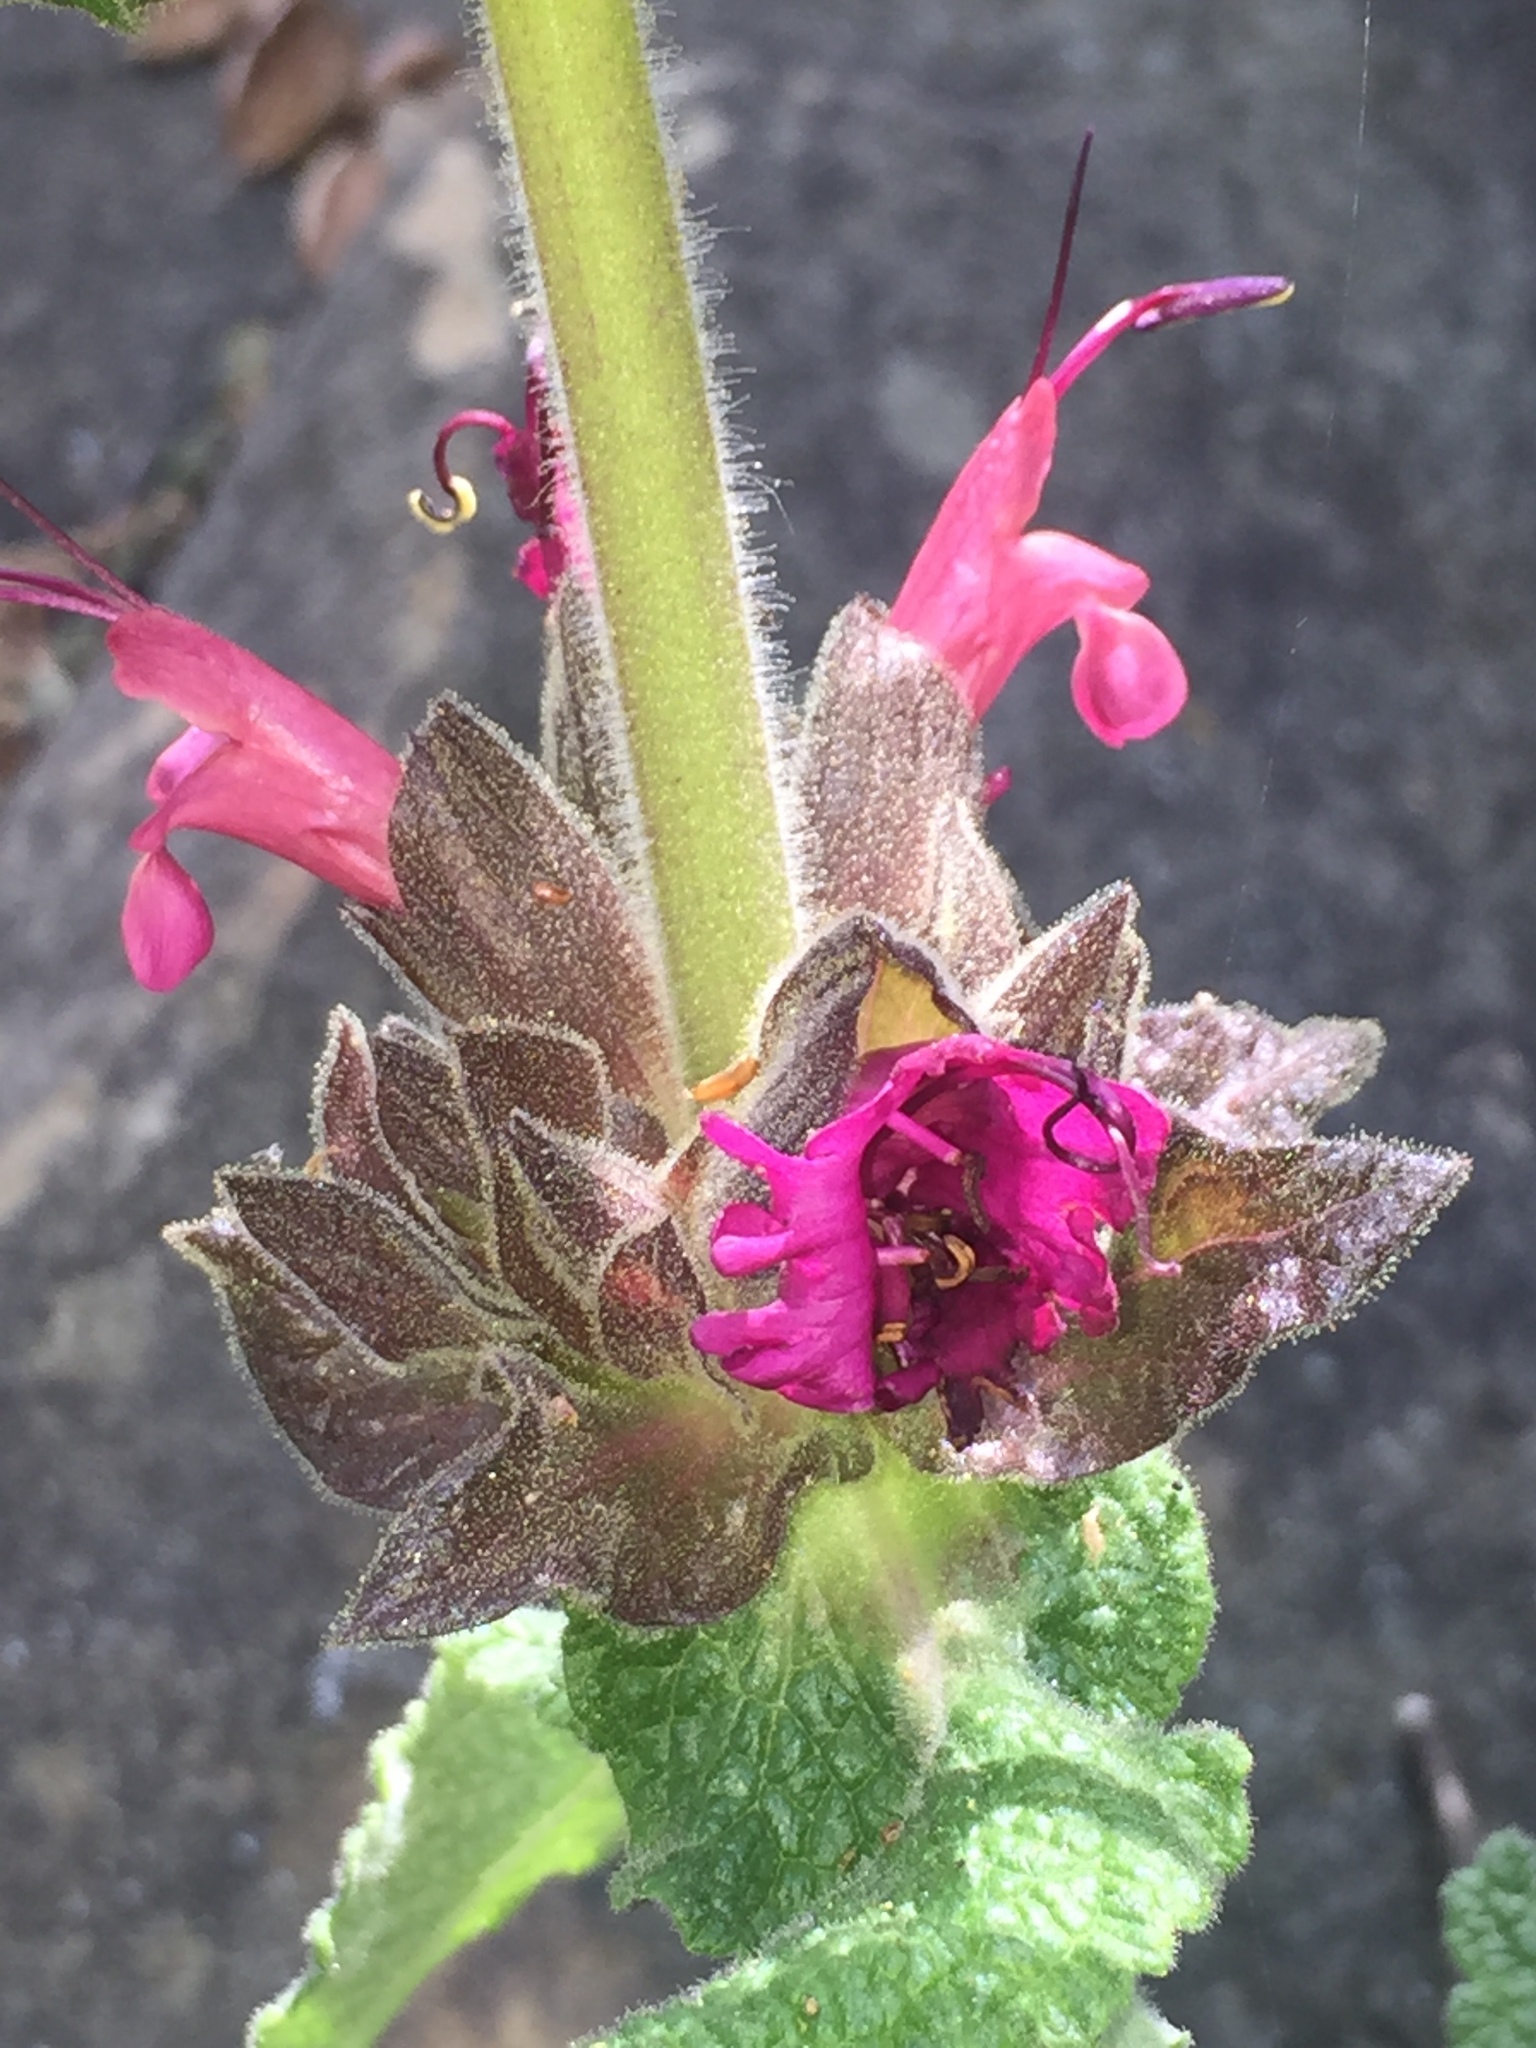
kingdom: Plantae
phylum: Tracheophyta
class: Magnoliopsida
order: Lamiales
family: Lamiaceae
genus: Salvia
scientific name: Salvia spathacea
